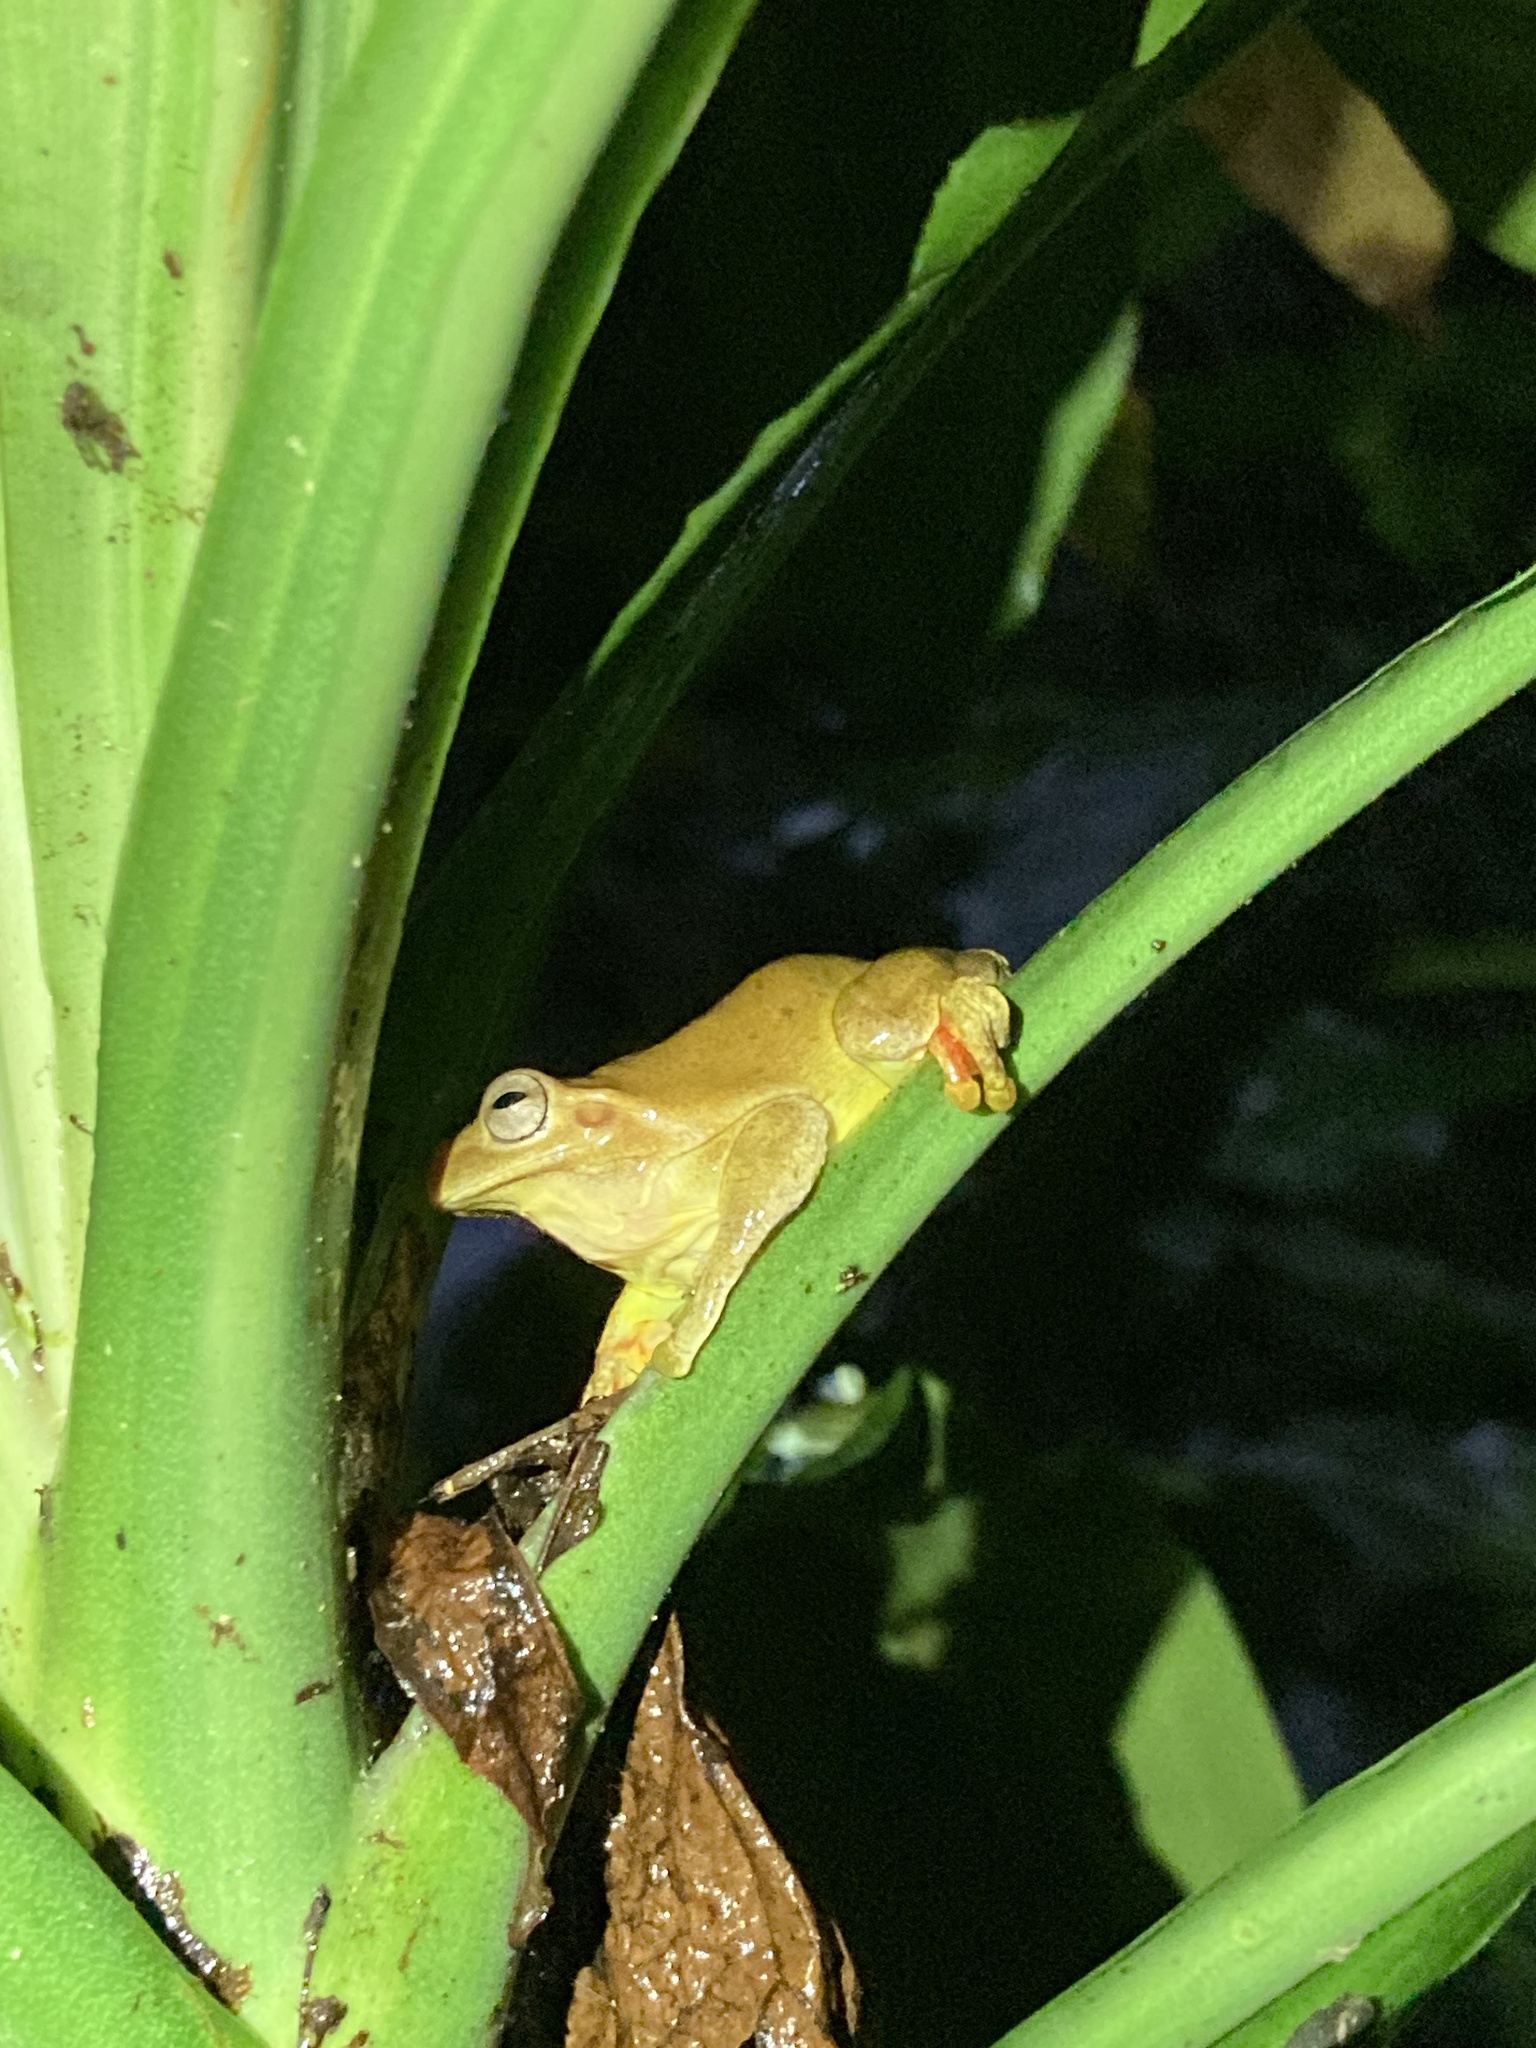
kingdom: Animalia
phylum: Chordata
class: Amphibia
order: Anura
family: Hylidae
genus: Tlalocohyla
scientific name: Tlalocohyla loquax
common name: Loquacious treefrog
